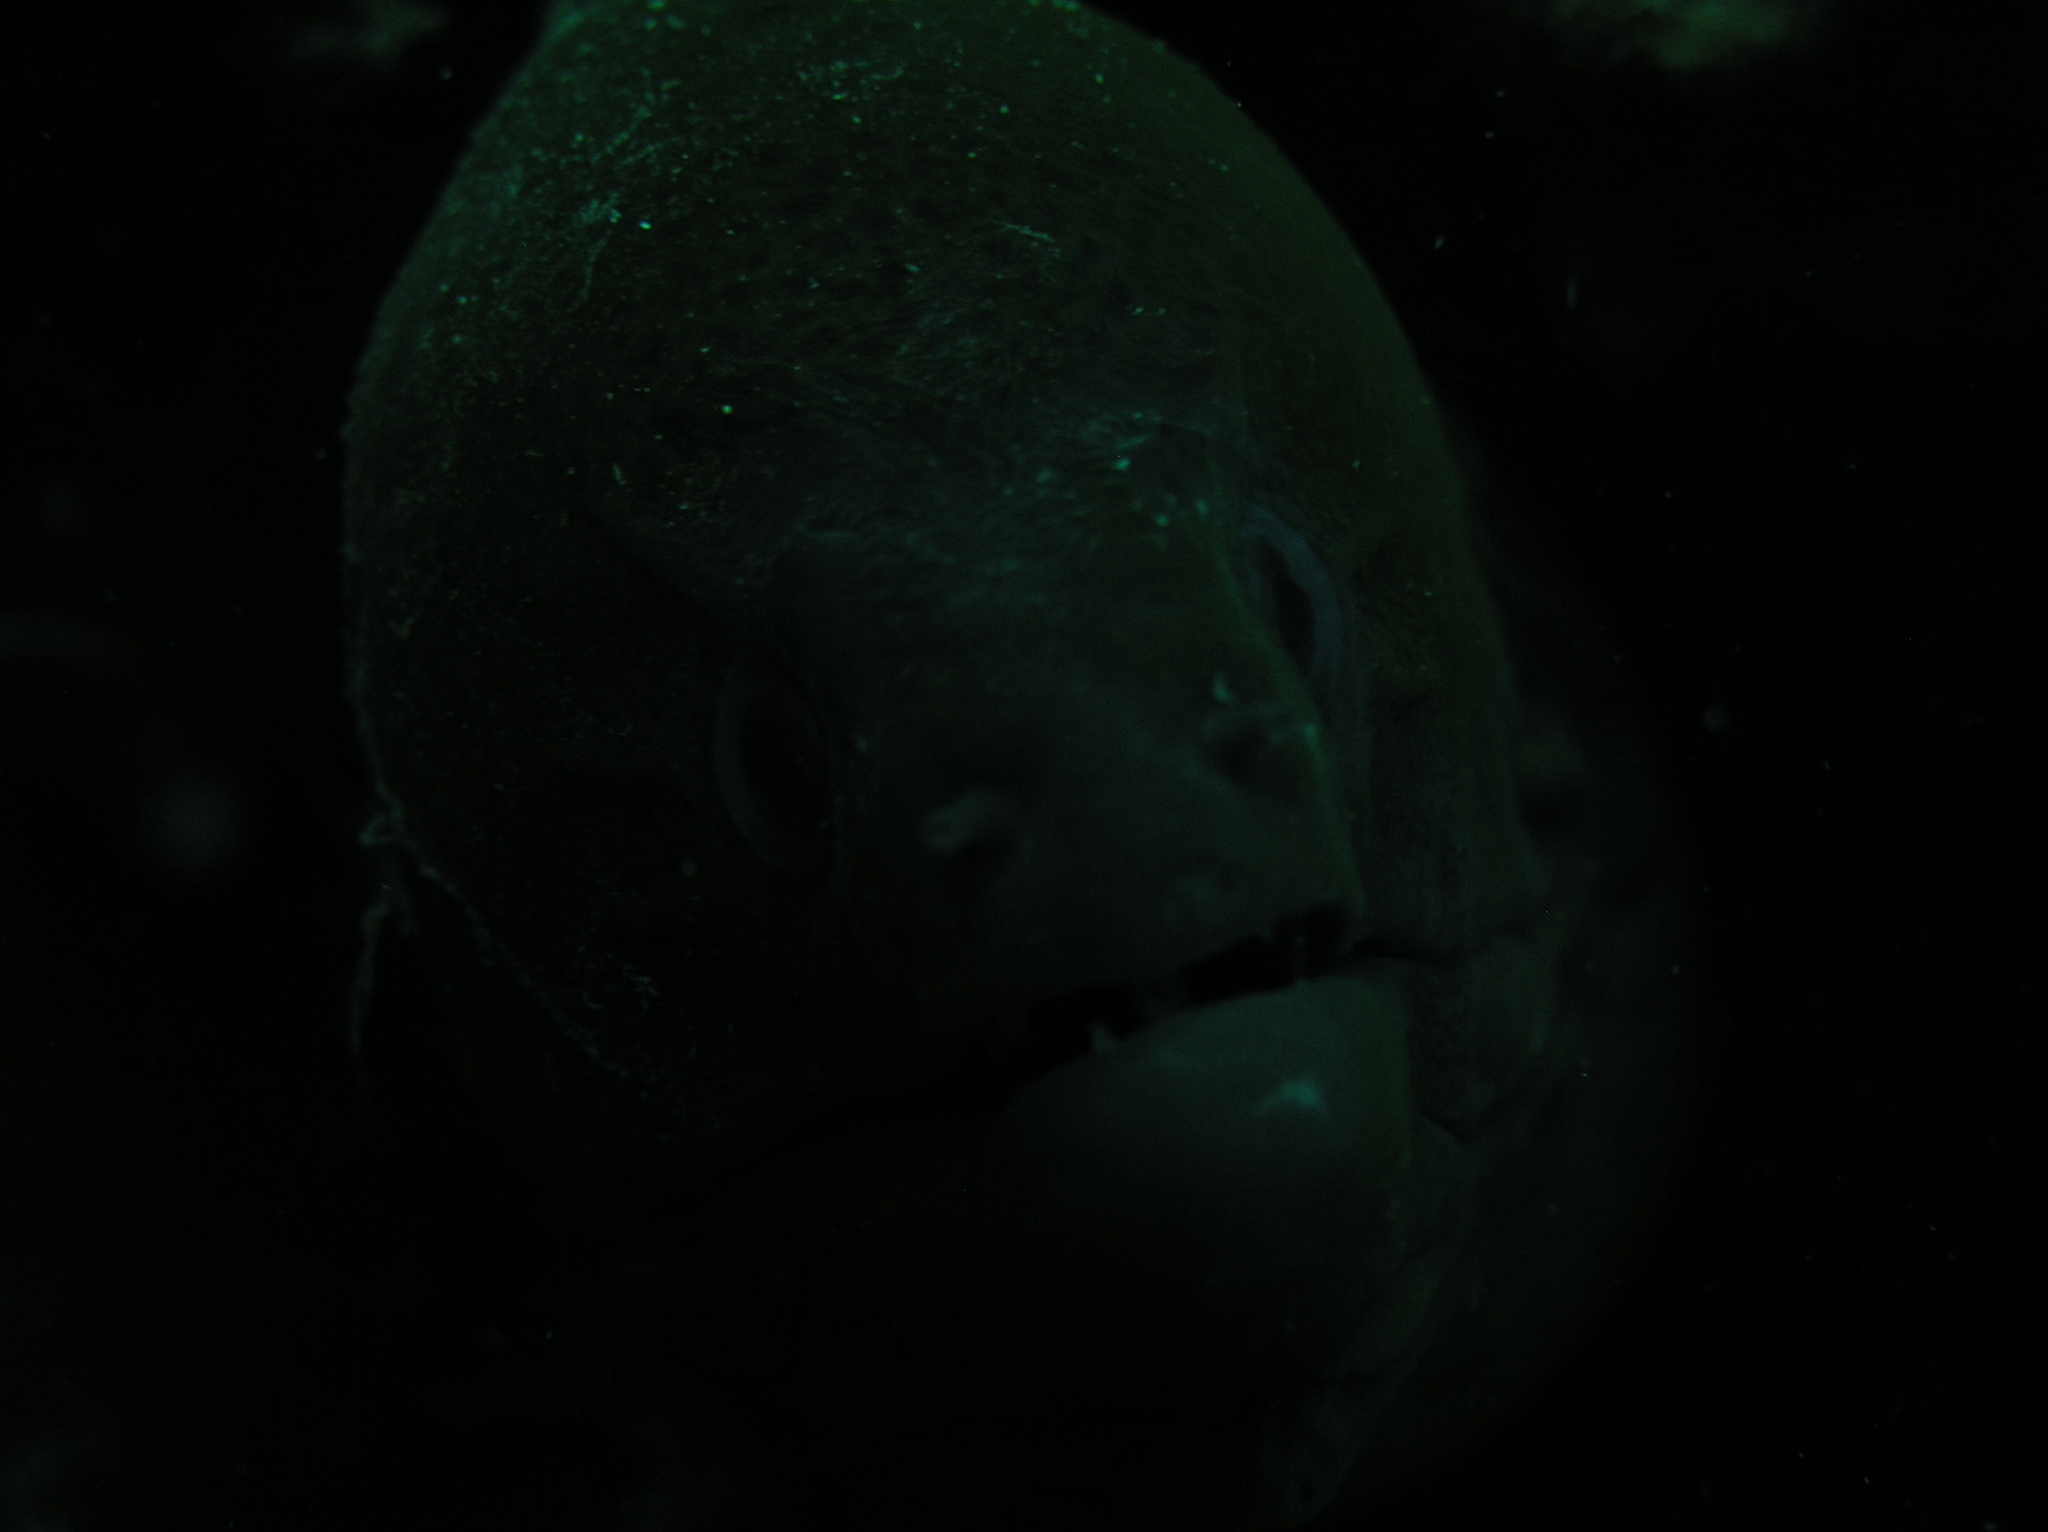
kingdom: Animalia
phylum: Chordata
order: Anguilliformes
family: Muraenidae
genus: Gymnothorax
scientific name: Gymnothorax javanicus
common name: Giant moray
